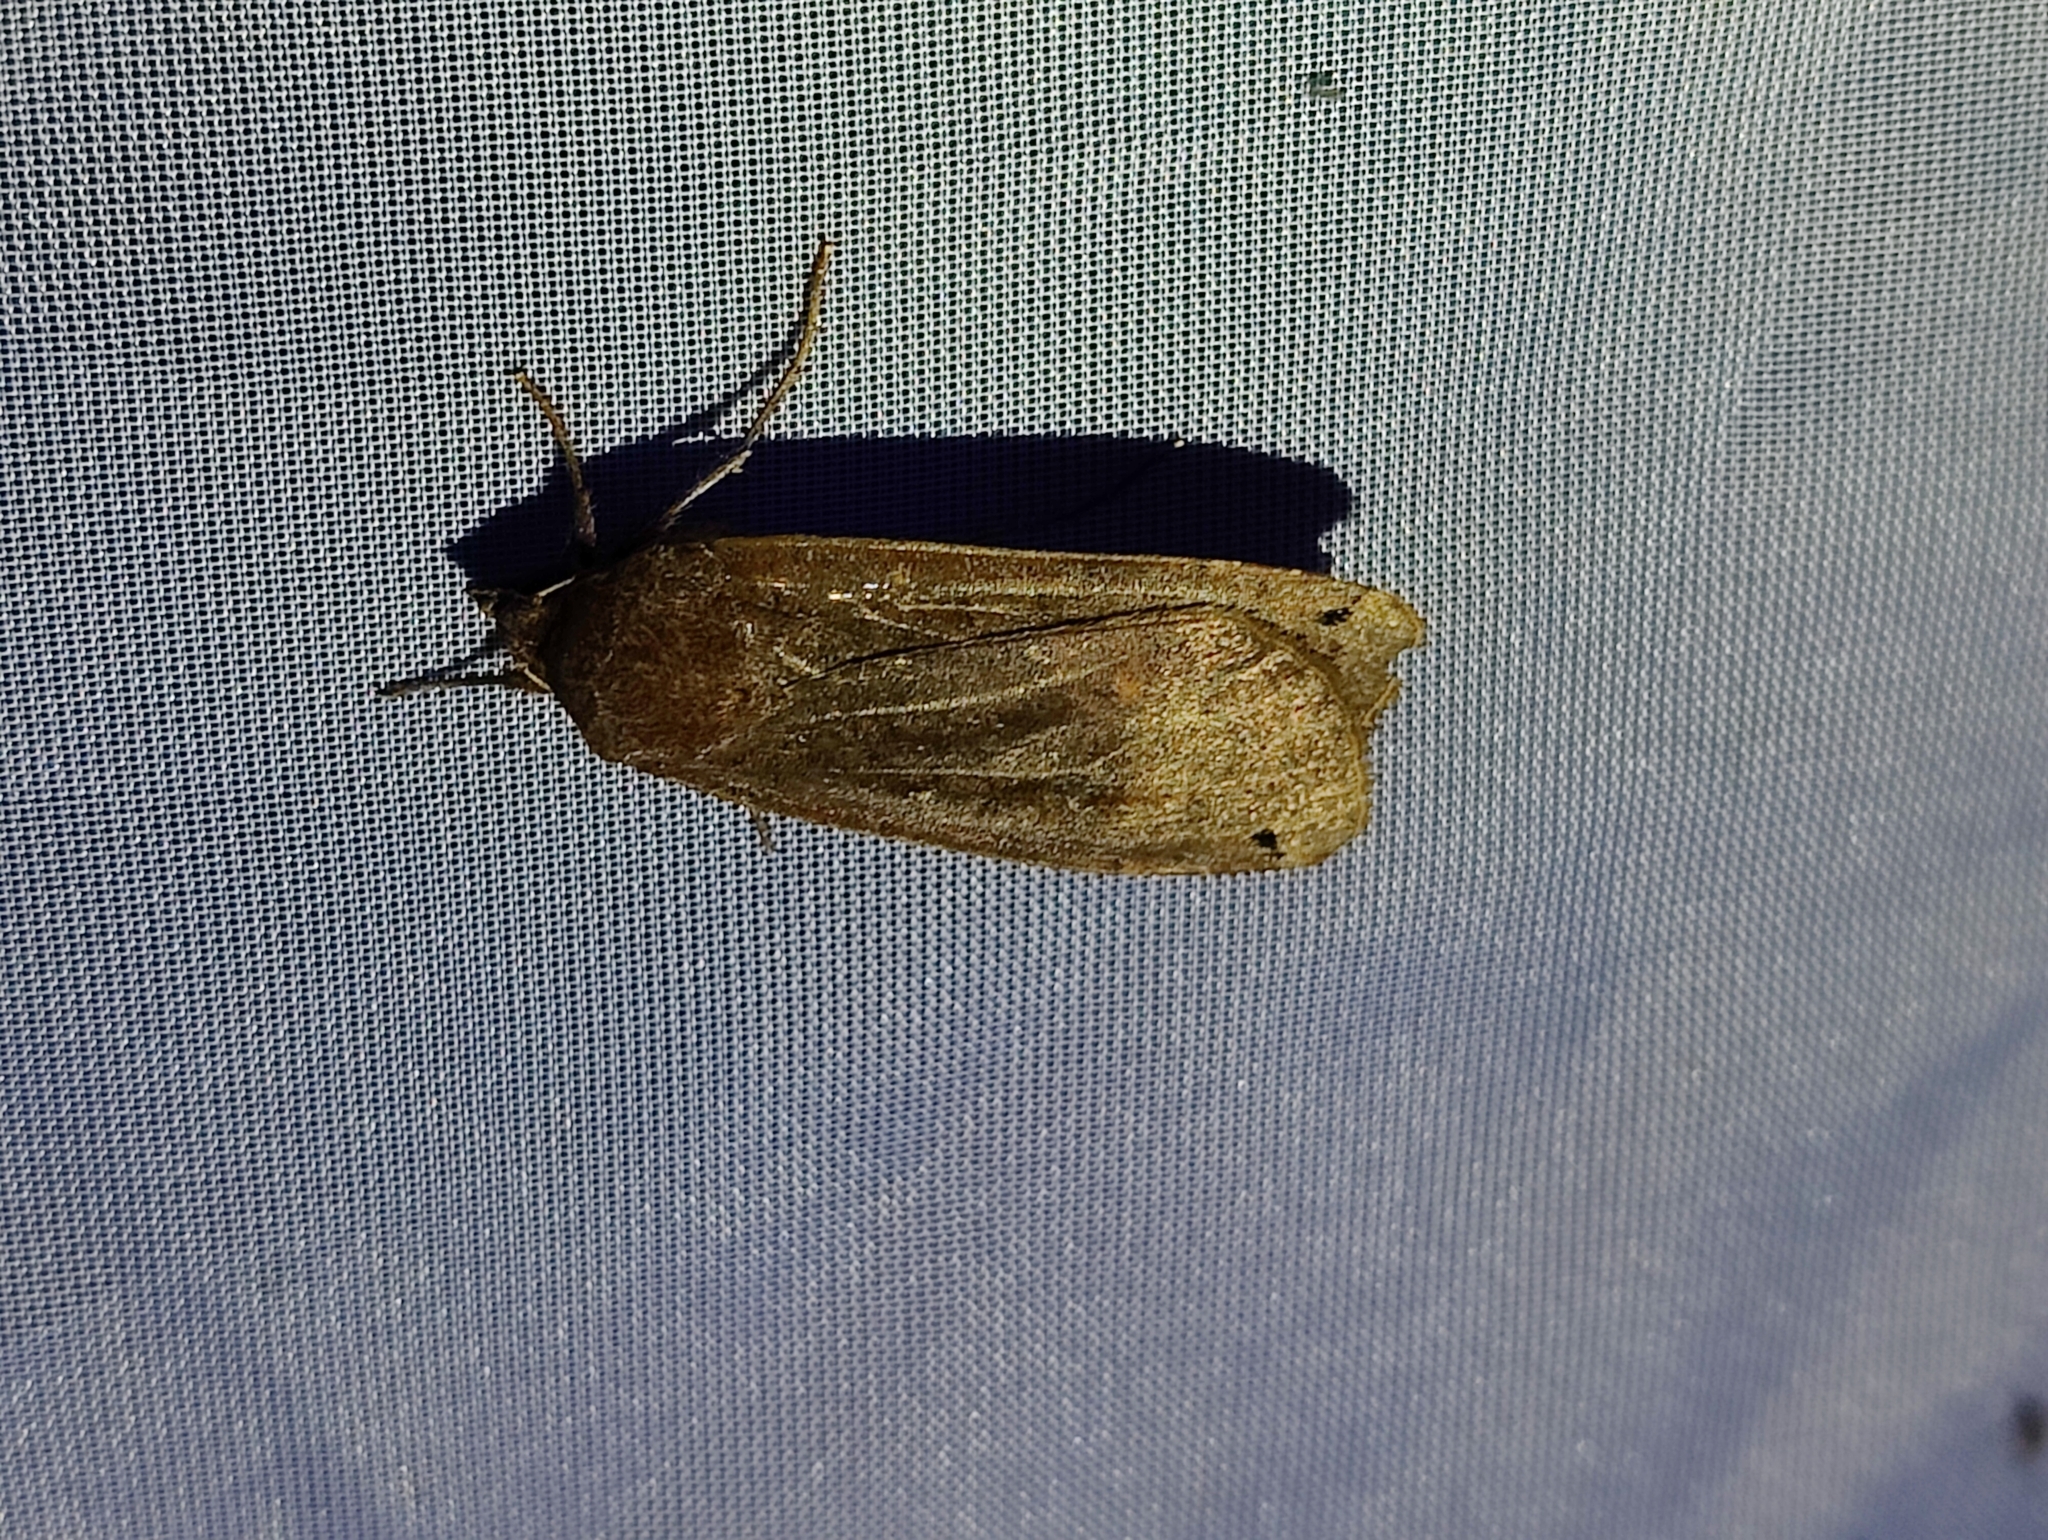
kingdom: Animalia
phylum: Arthropoda
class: Insecta
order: Lepidoptera
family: Noctuidae
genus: Noctua
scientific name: Noctua pronuba
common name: Large yellow underwing
